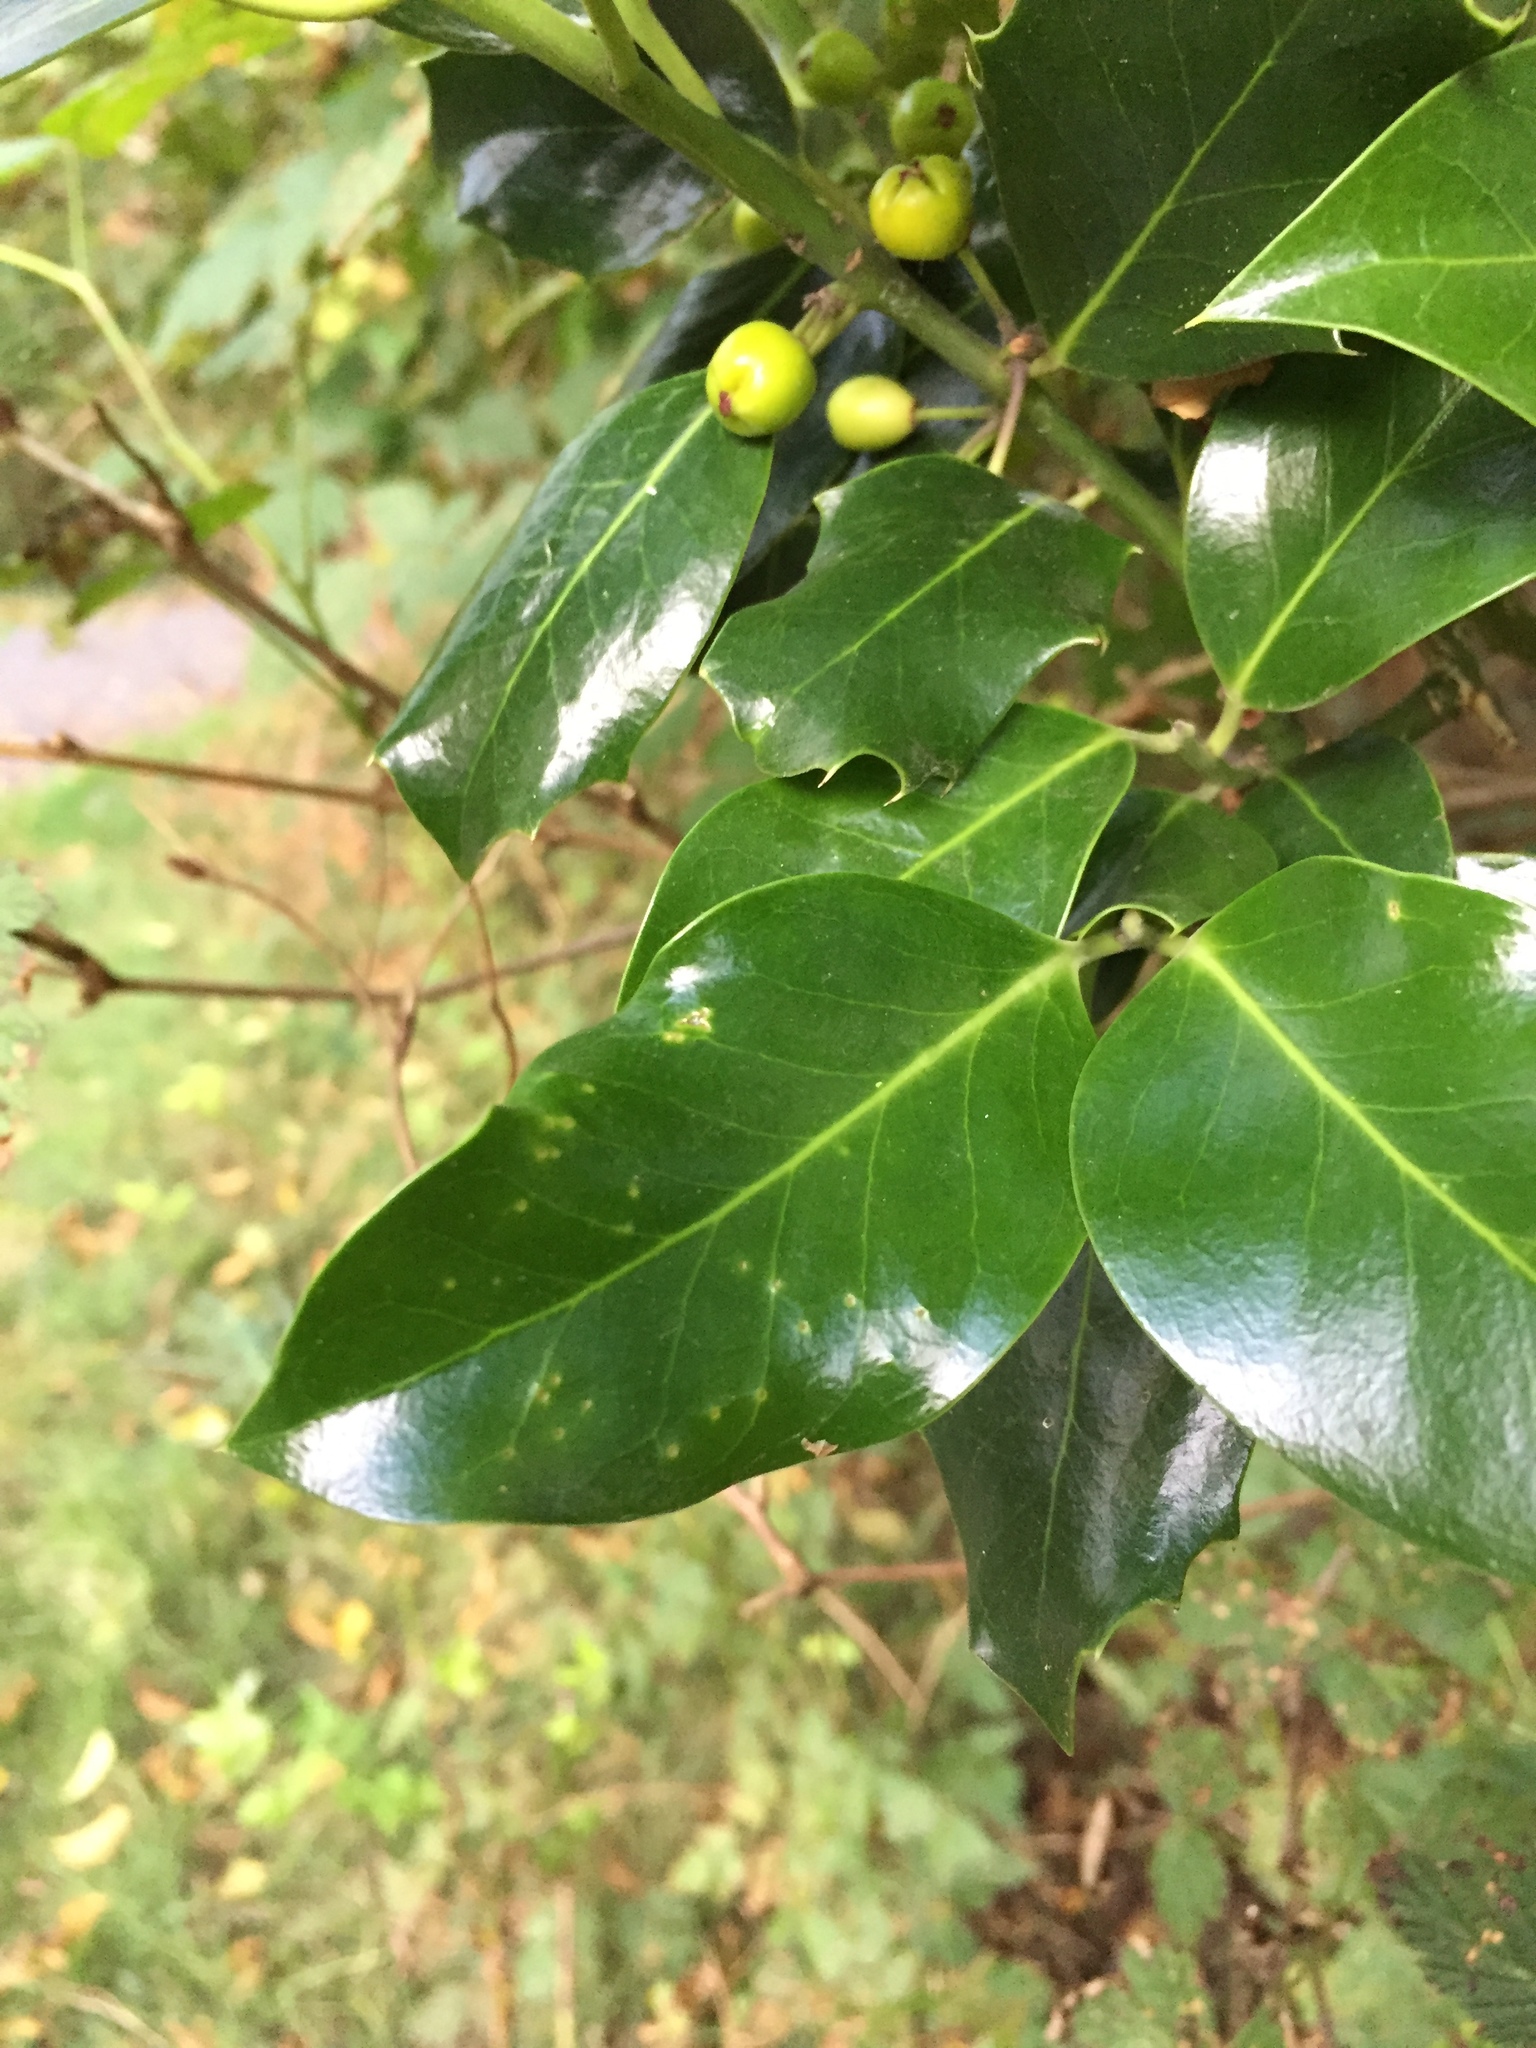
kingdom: Plantae
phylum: Tracheophyta
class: Magnoliopsida
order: Aquifoliales
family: Aquifoliaceae
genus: Ilex
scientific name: Ilex aquifolium
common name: English holly
